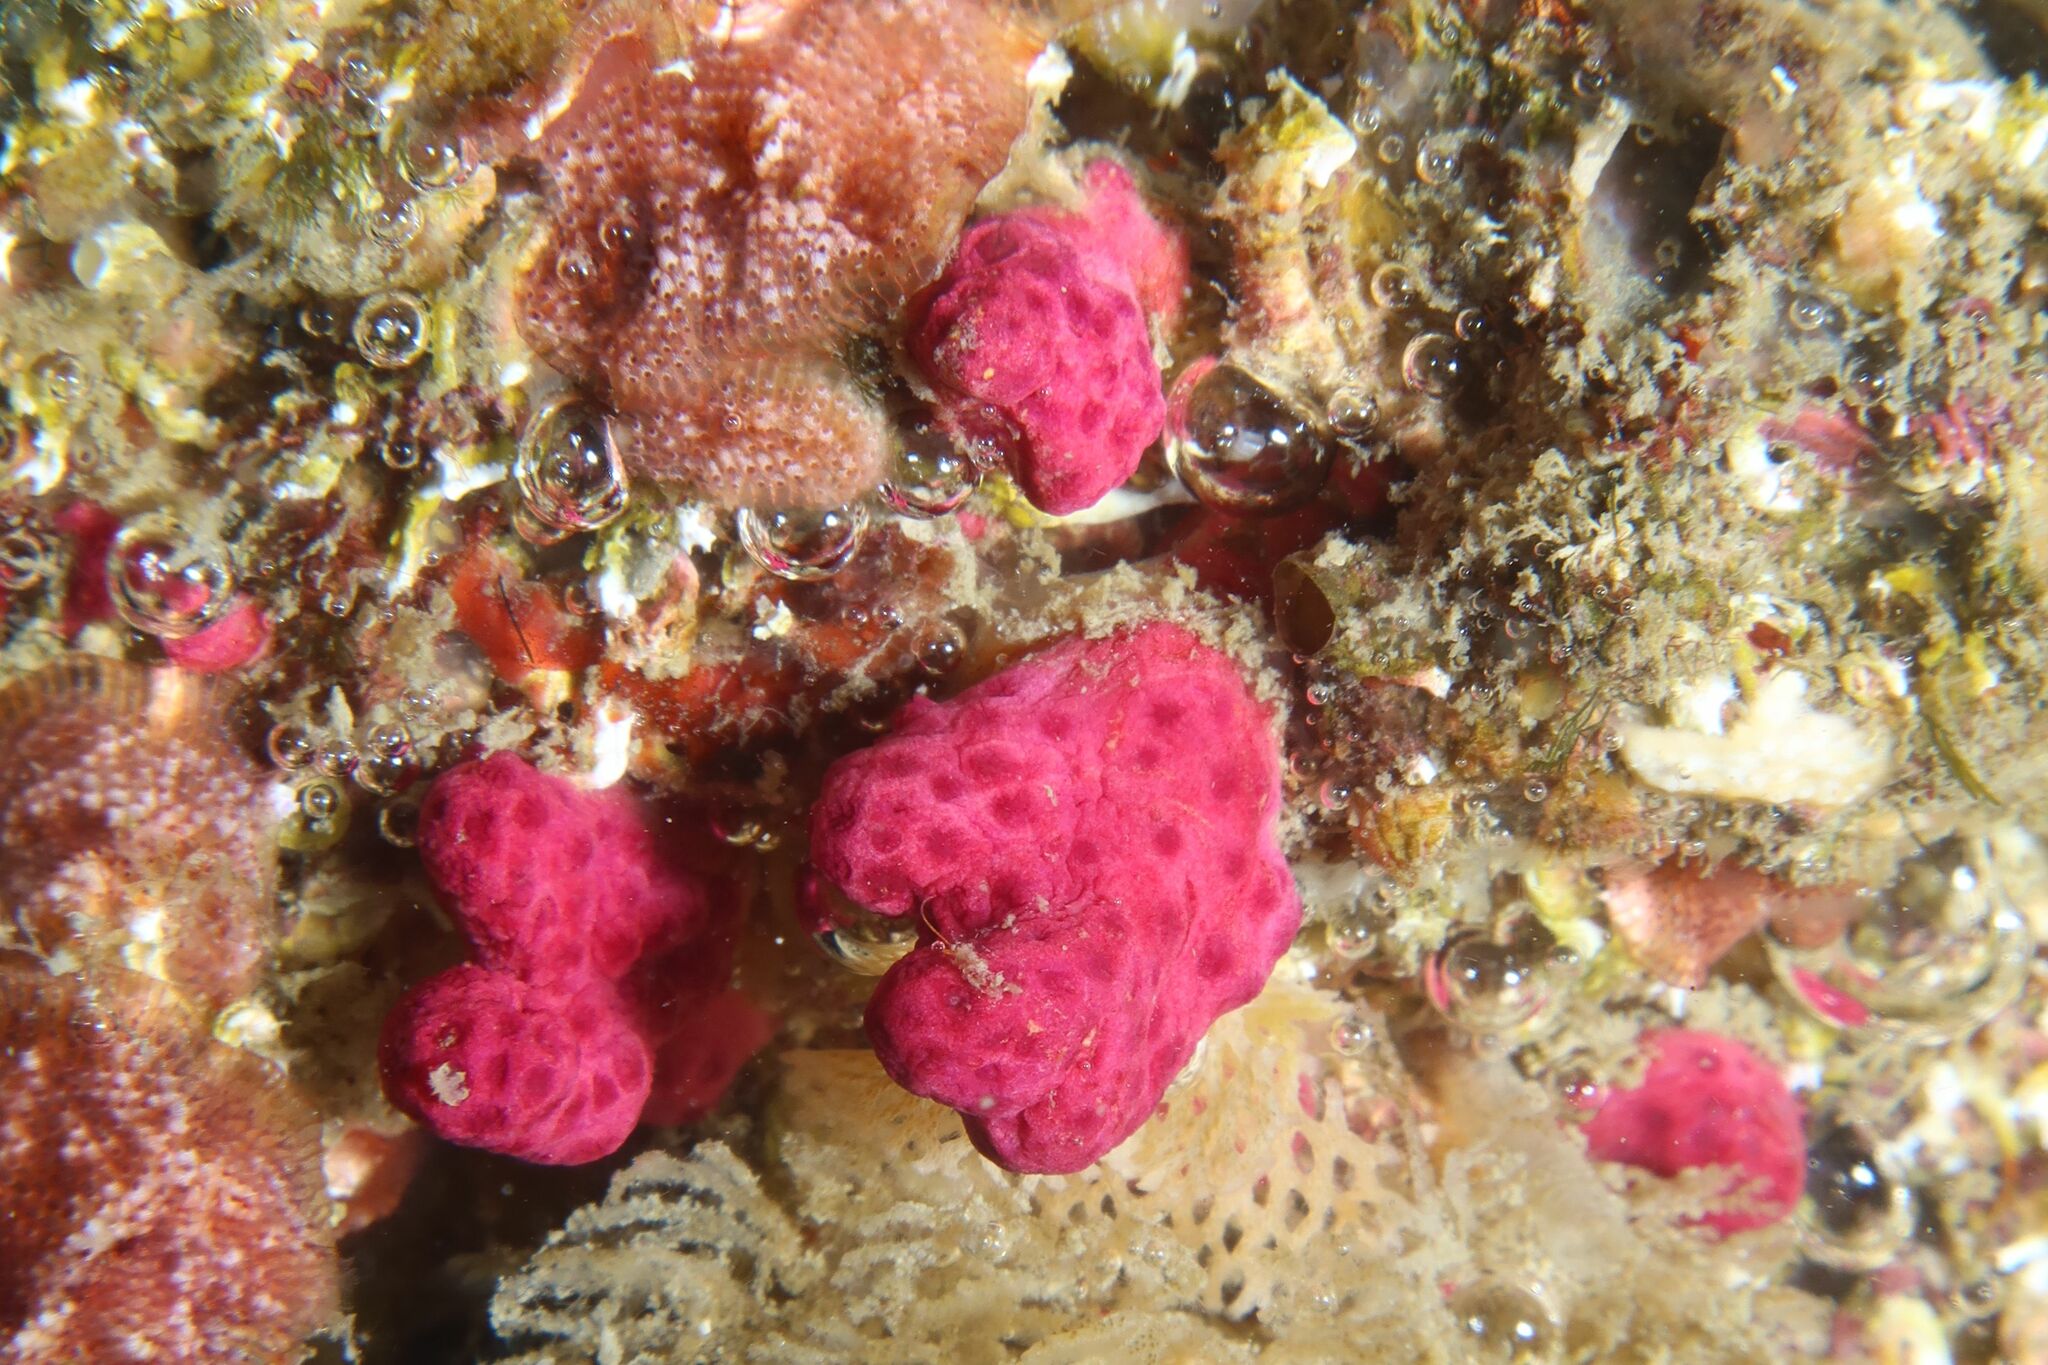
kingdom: Animalia
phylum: Cnidaria
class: Anthozoa
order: Malacalcyonacea
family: Alcyoniidae
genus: Alcyonium
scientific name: Alcyonium coralloides
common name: Soft coral
